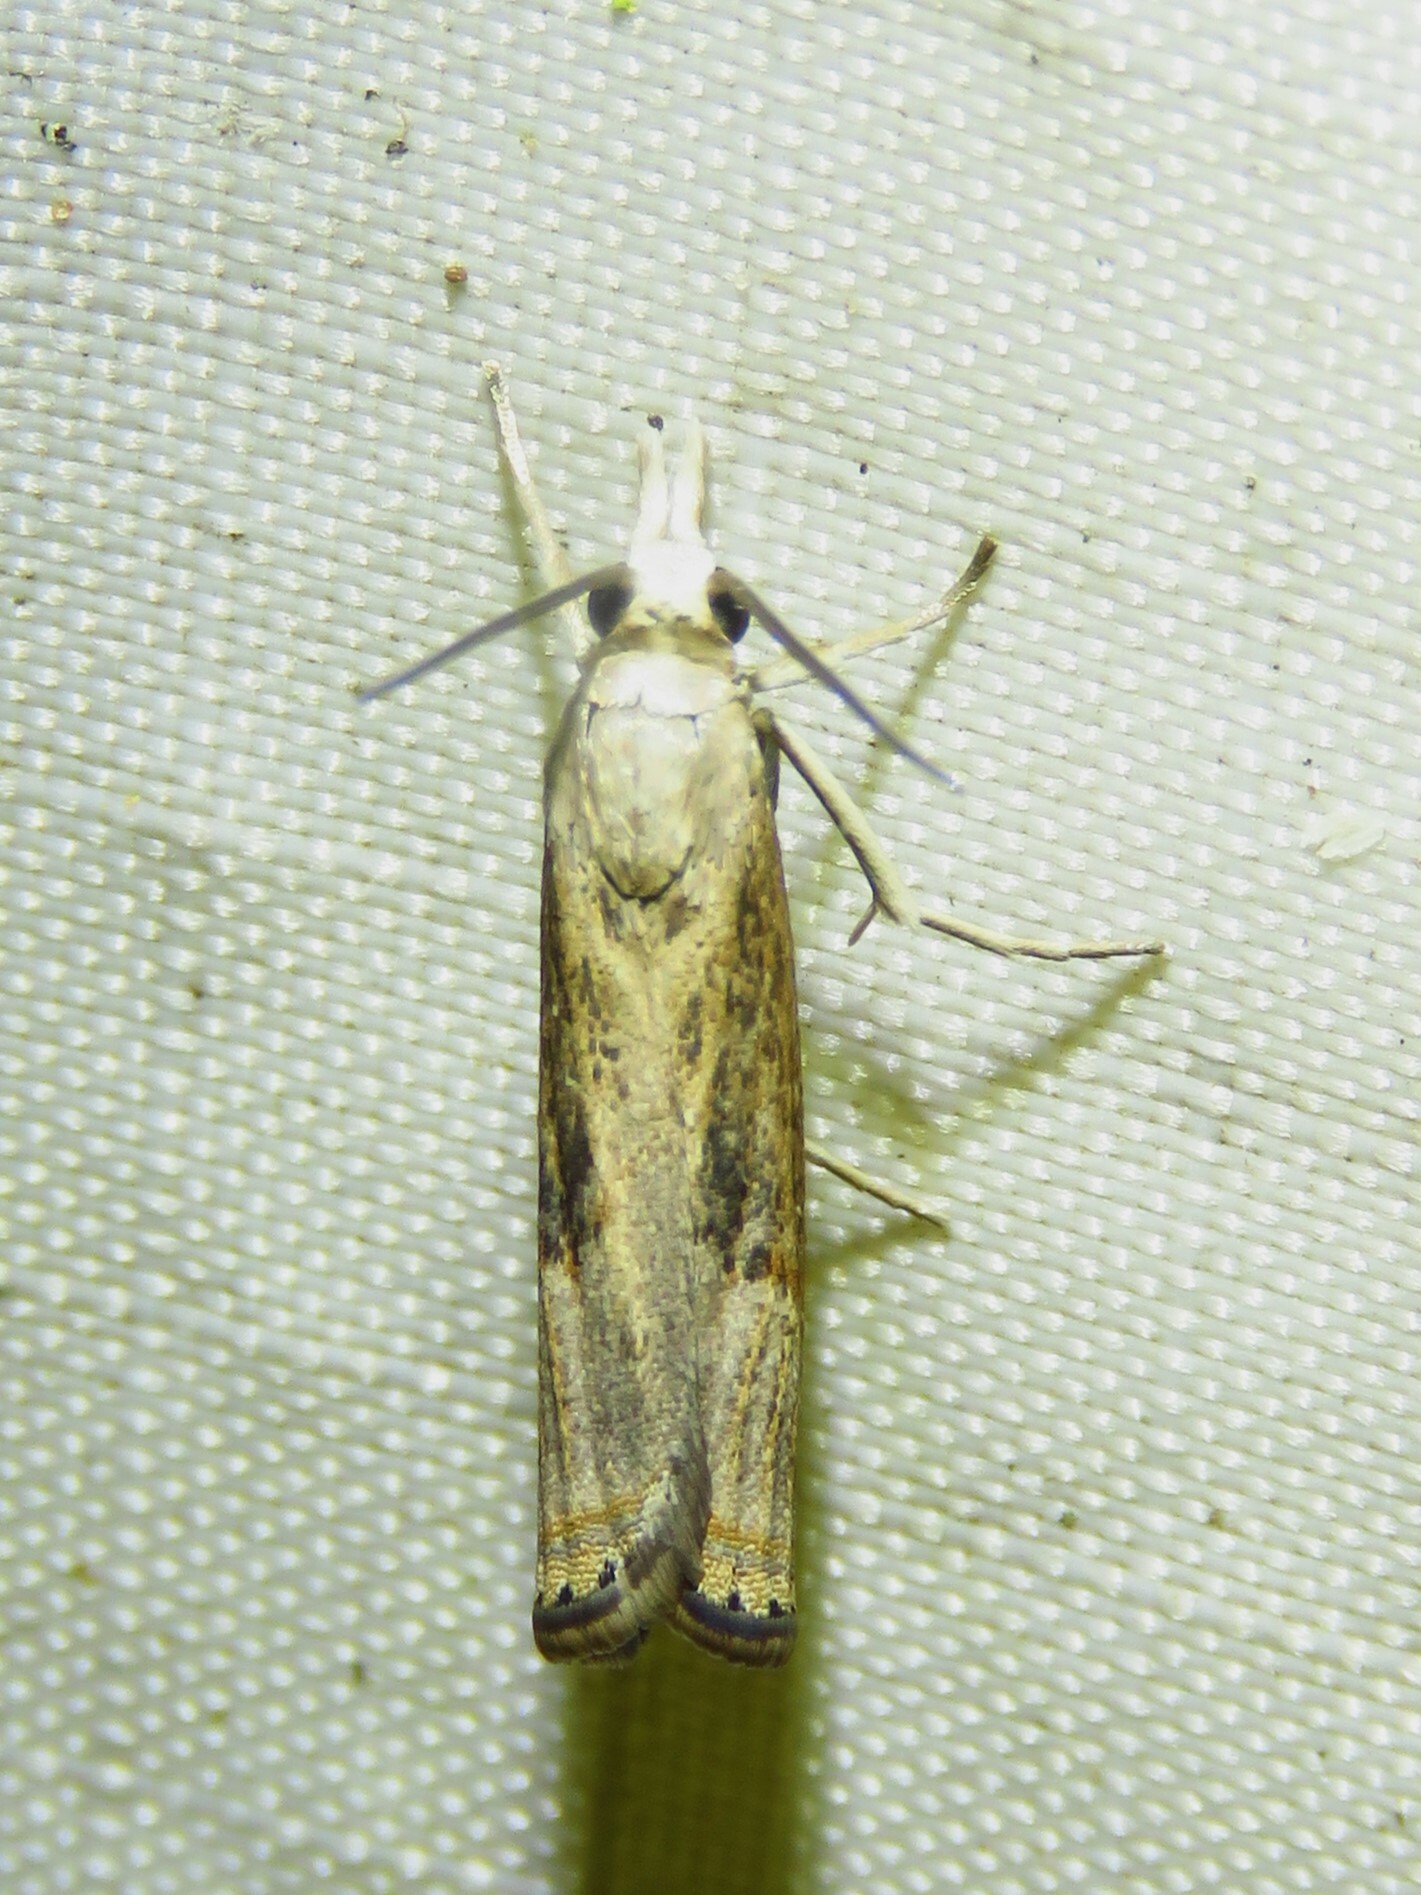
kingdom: Animalia
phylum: Arthropoda
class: Insecta
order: Lepidoptera
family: Crambidae
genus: Parapediasia
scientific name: Parapediasia teterellus
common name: Bluegrass webworm moth
